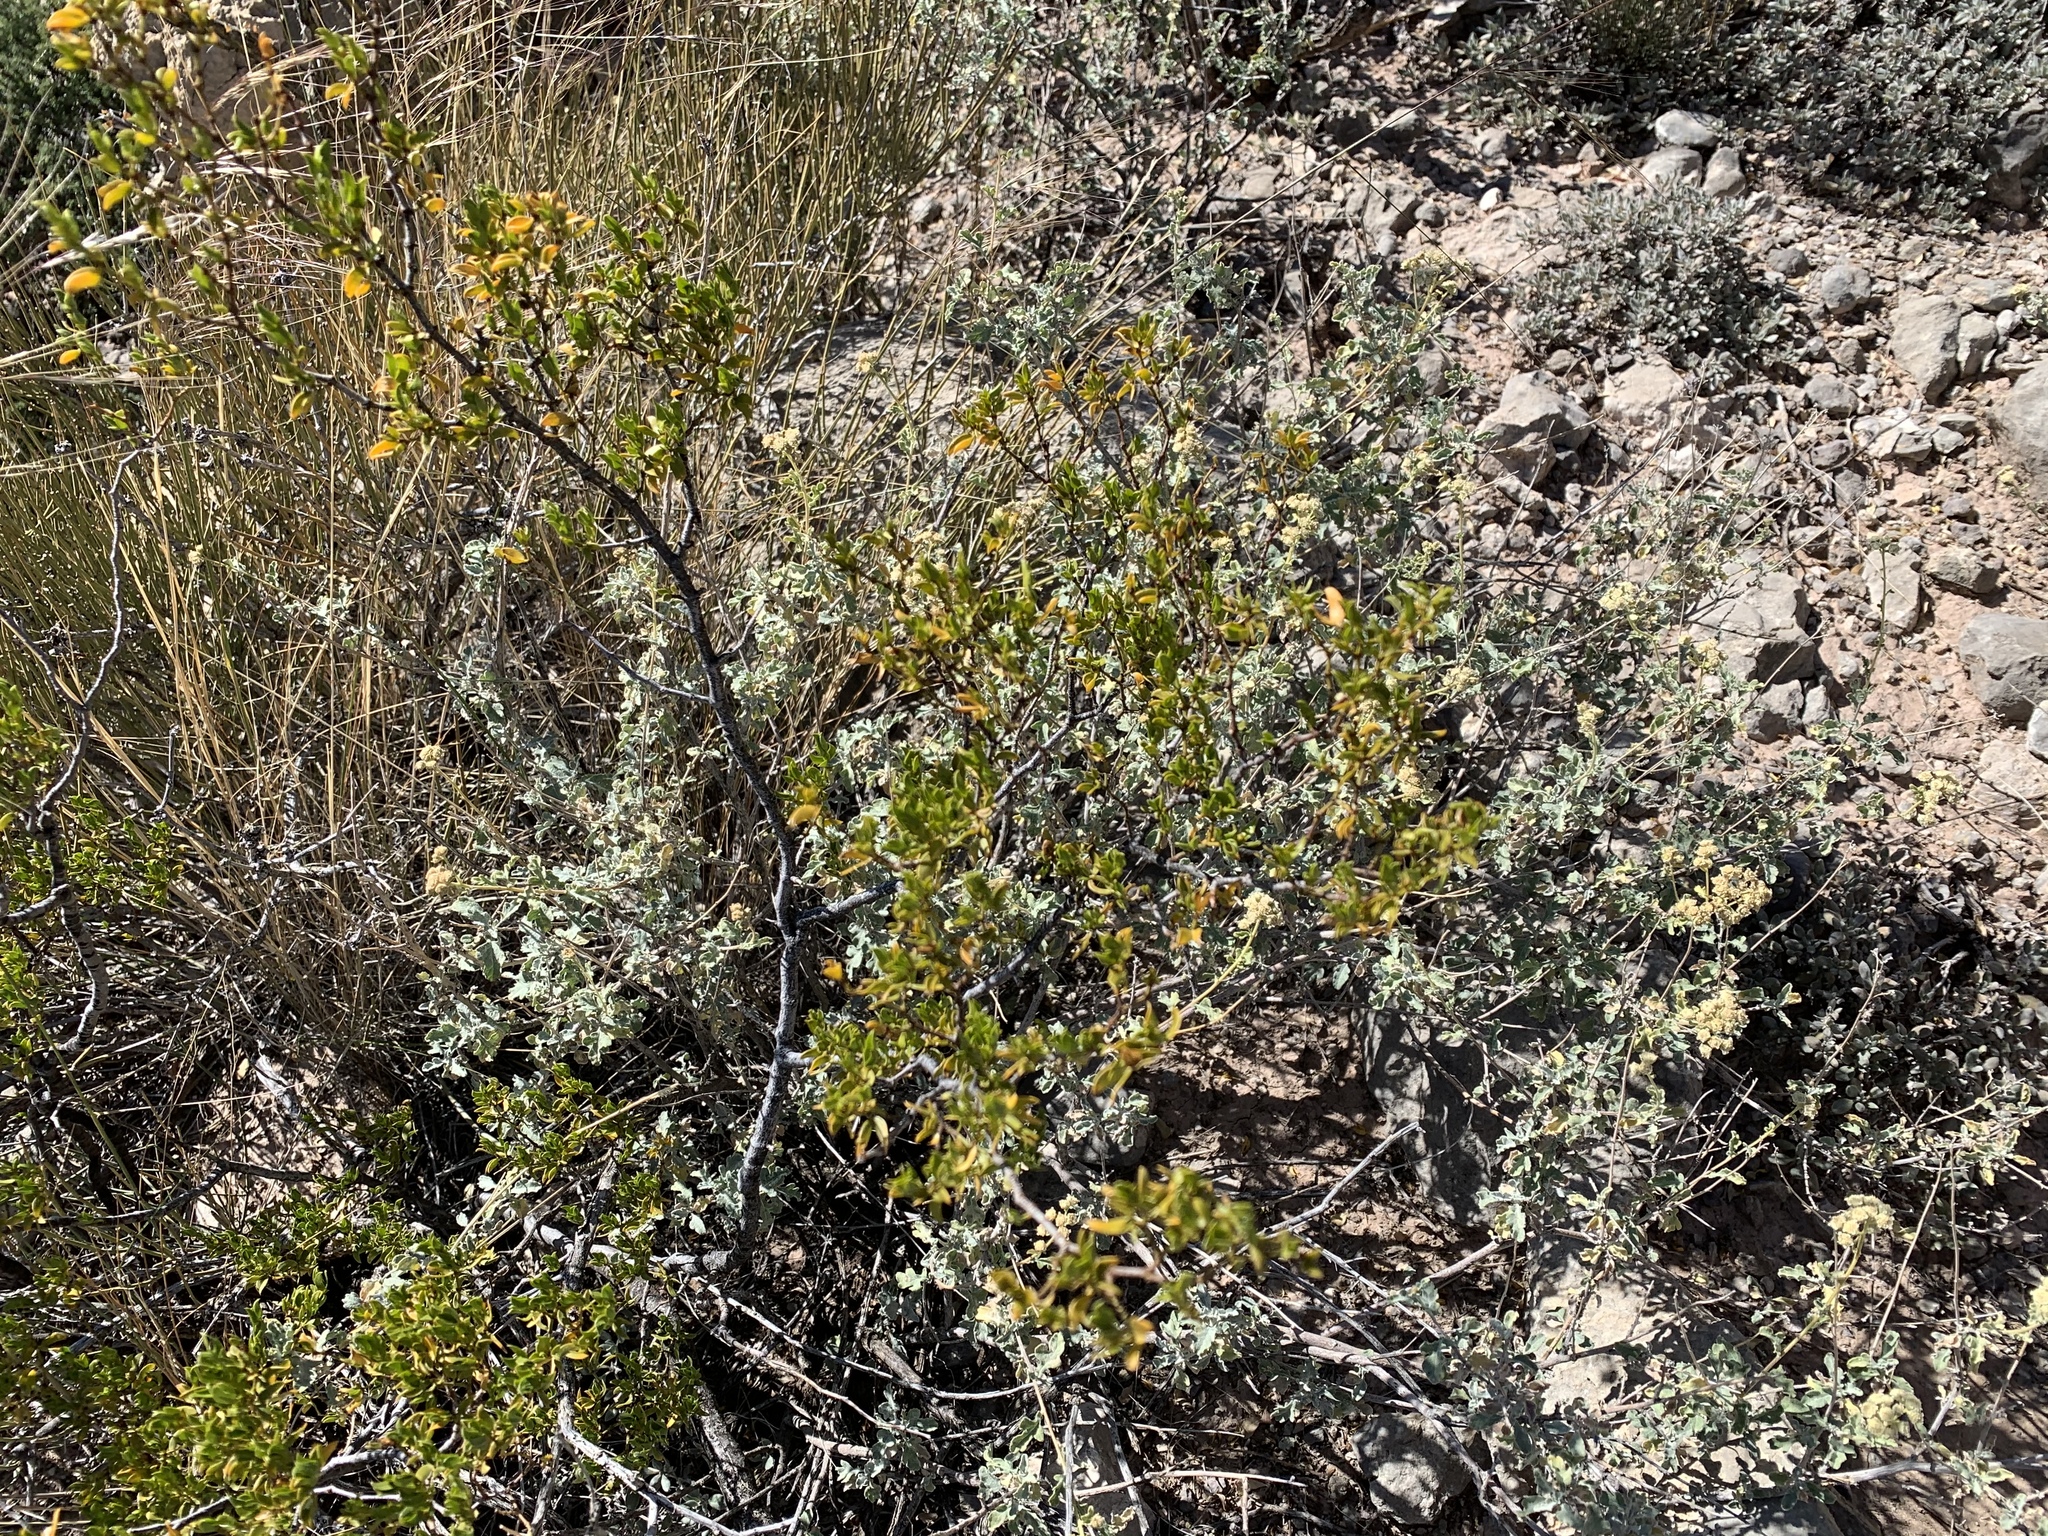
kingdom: Plantae
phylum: Tracheophyta
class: Magnoliopsida
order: Zygophyllales
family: Zygophyllaceae
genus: Larrea
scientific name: Larrea tridentata
